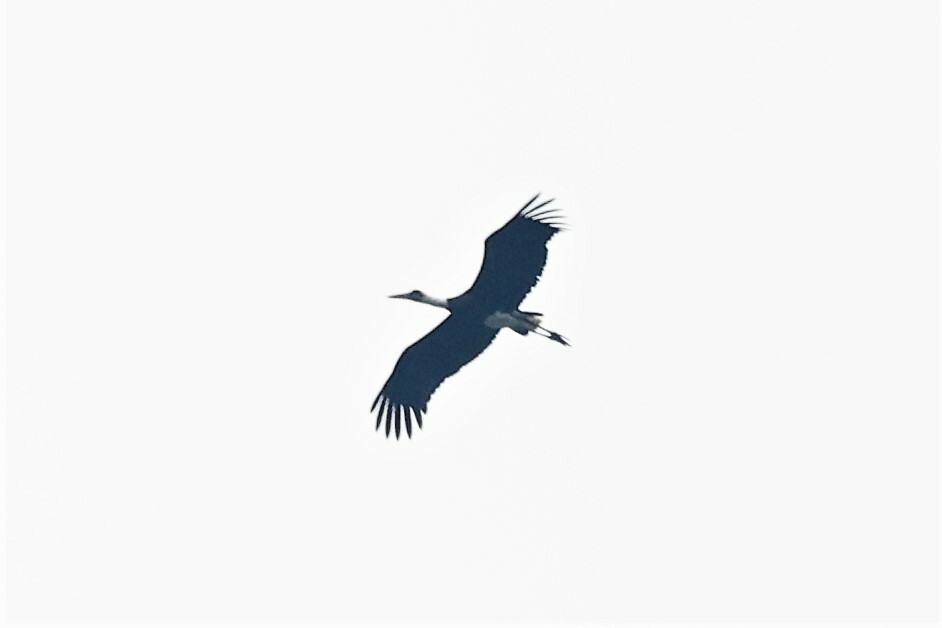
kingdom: Animalia
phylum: Chordata
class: Aves
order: Ciconiiformes
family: Ciconiidae
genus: Ciconia
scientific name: Ciconia microscelis
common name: African woollyneck
